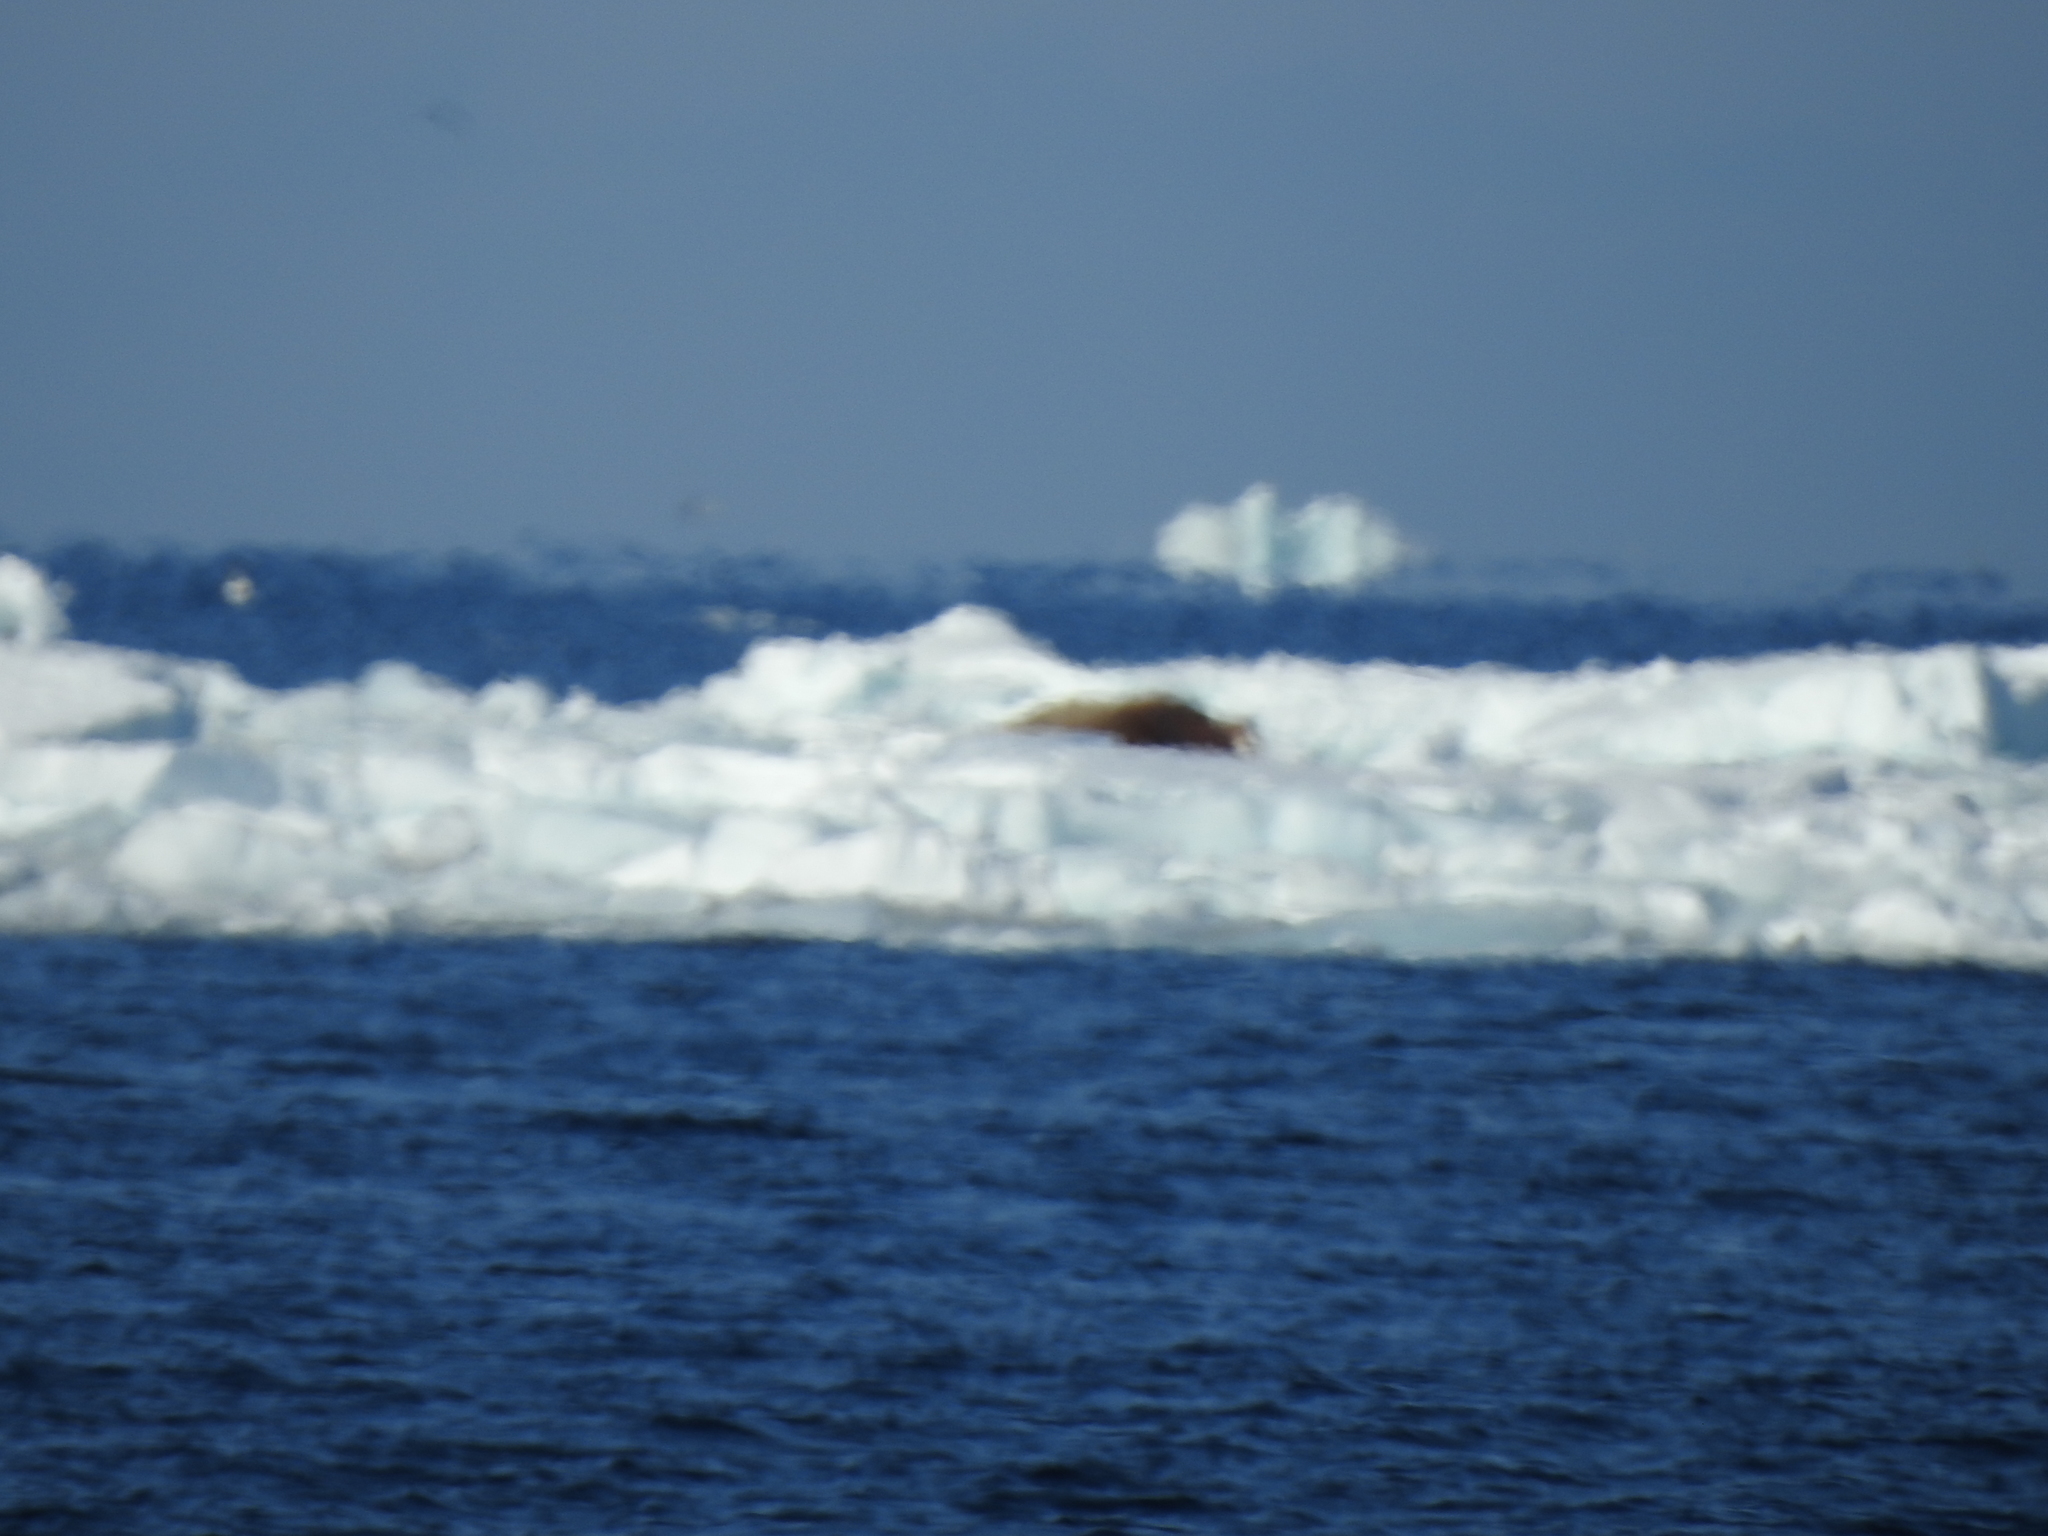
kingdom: Animalia
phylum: Chordata
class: Mammalia
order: Carnivora
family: Odobenidae
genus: Odobenus
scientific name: Odobenus rosmarus
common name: Walrus
